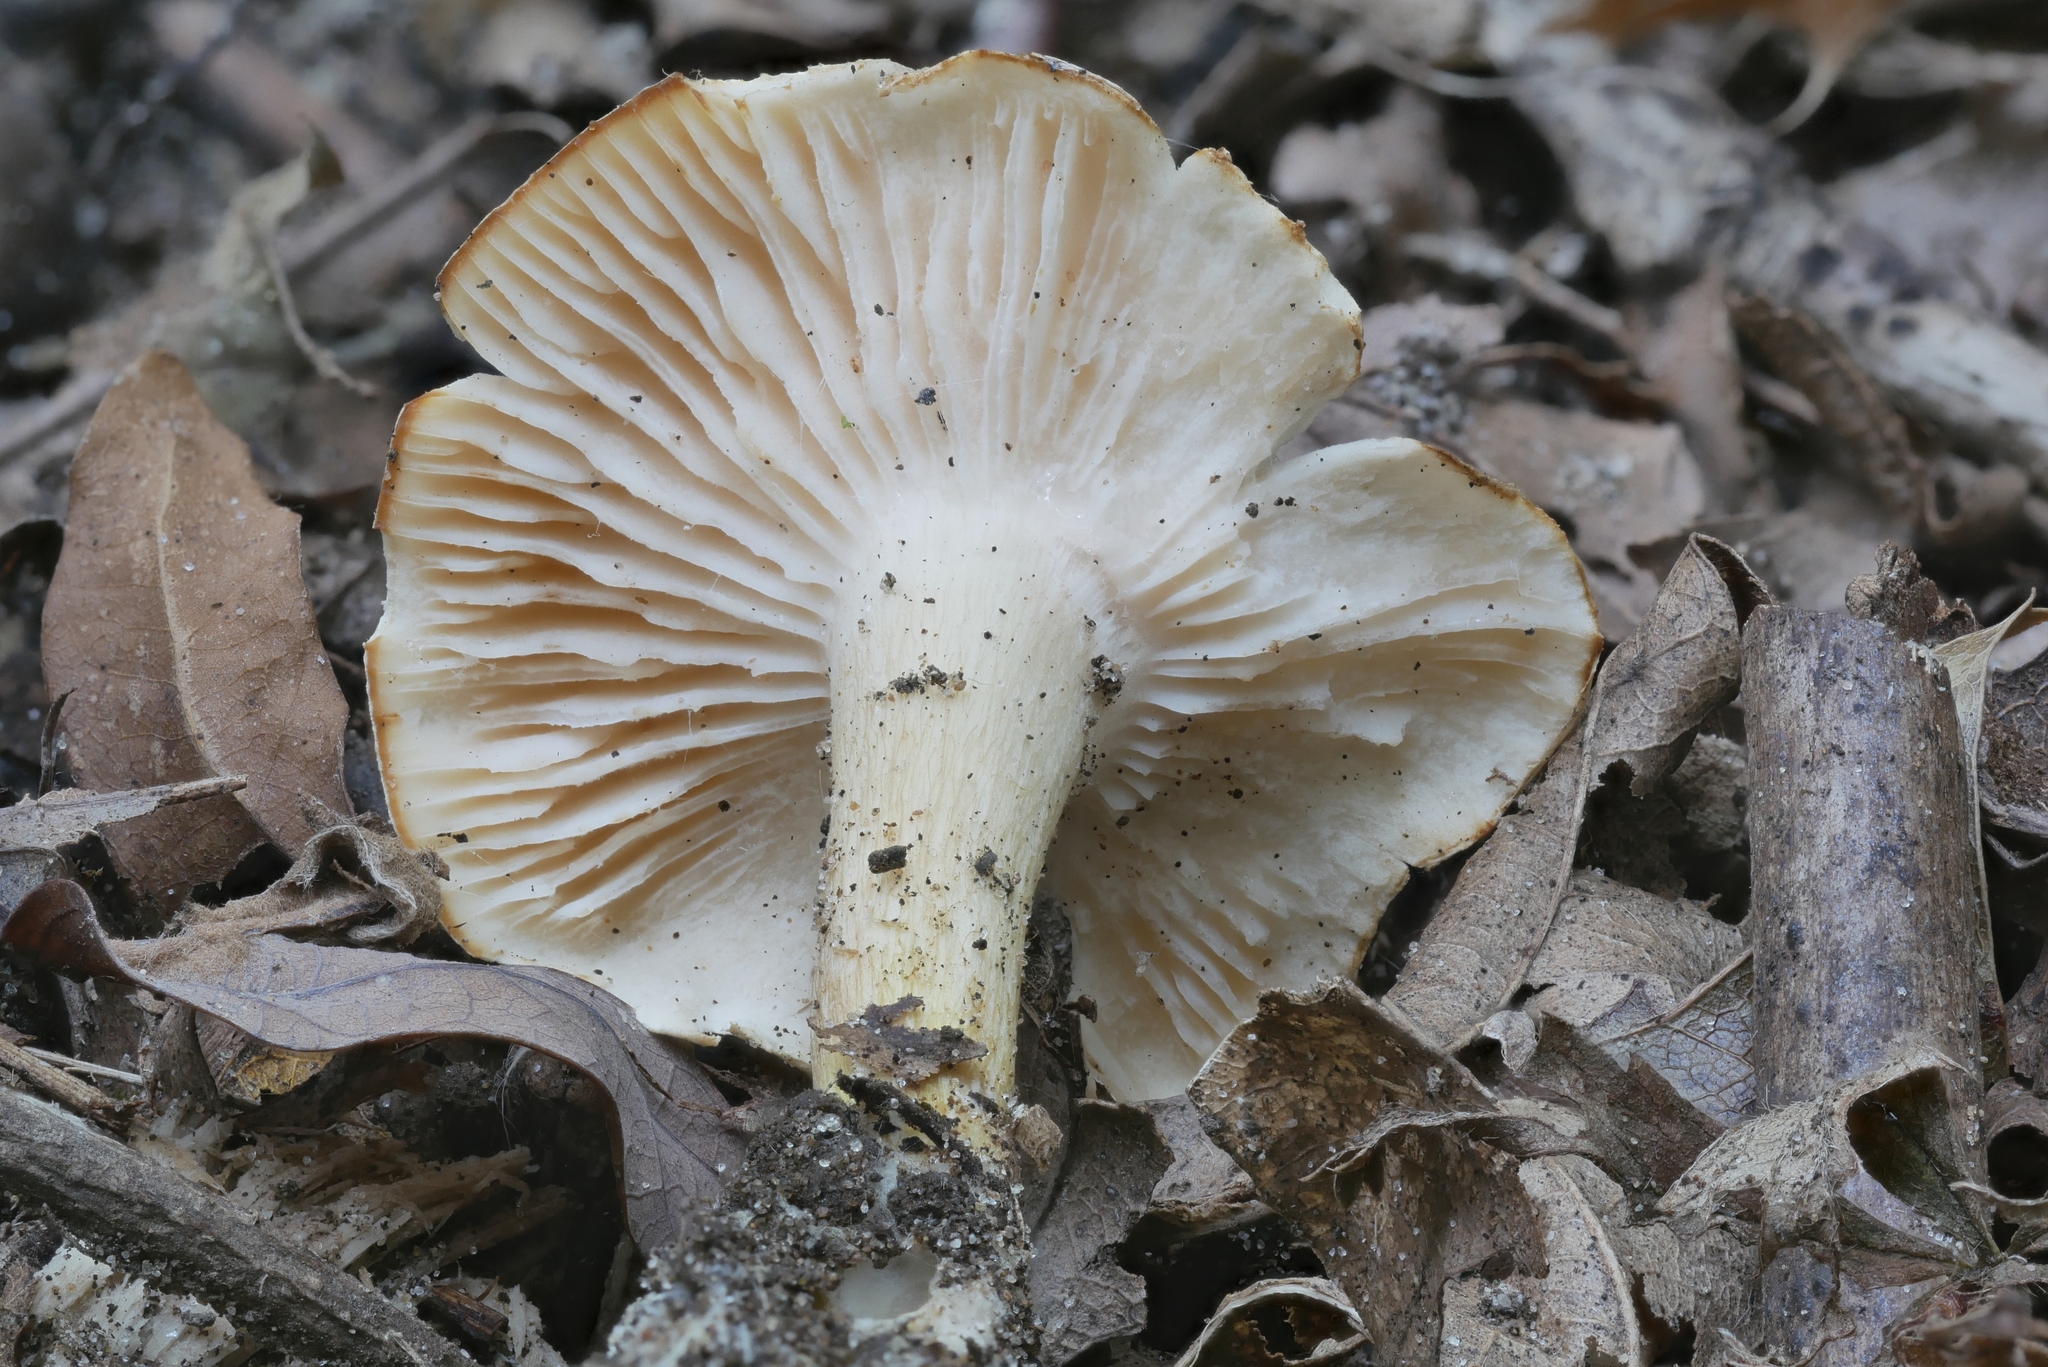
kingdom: Fungi
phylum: Basidiomycota
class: Agaricomycetes
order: Agaricales
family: Tricholomataceae
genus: Tricholoma
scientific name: Tricholoma odorum
